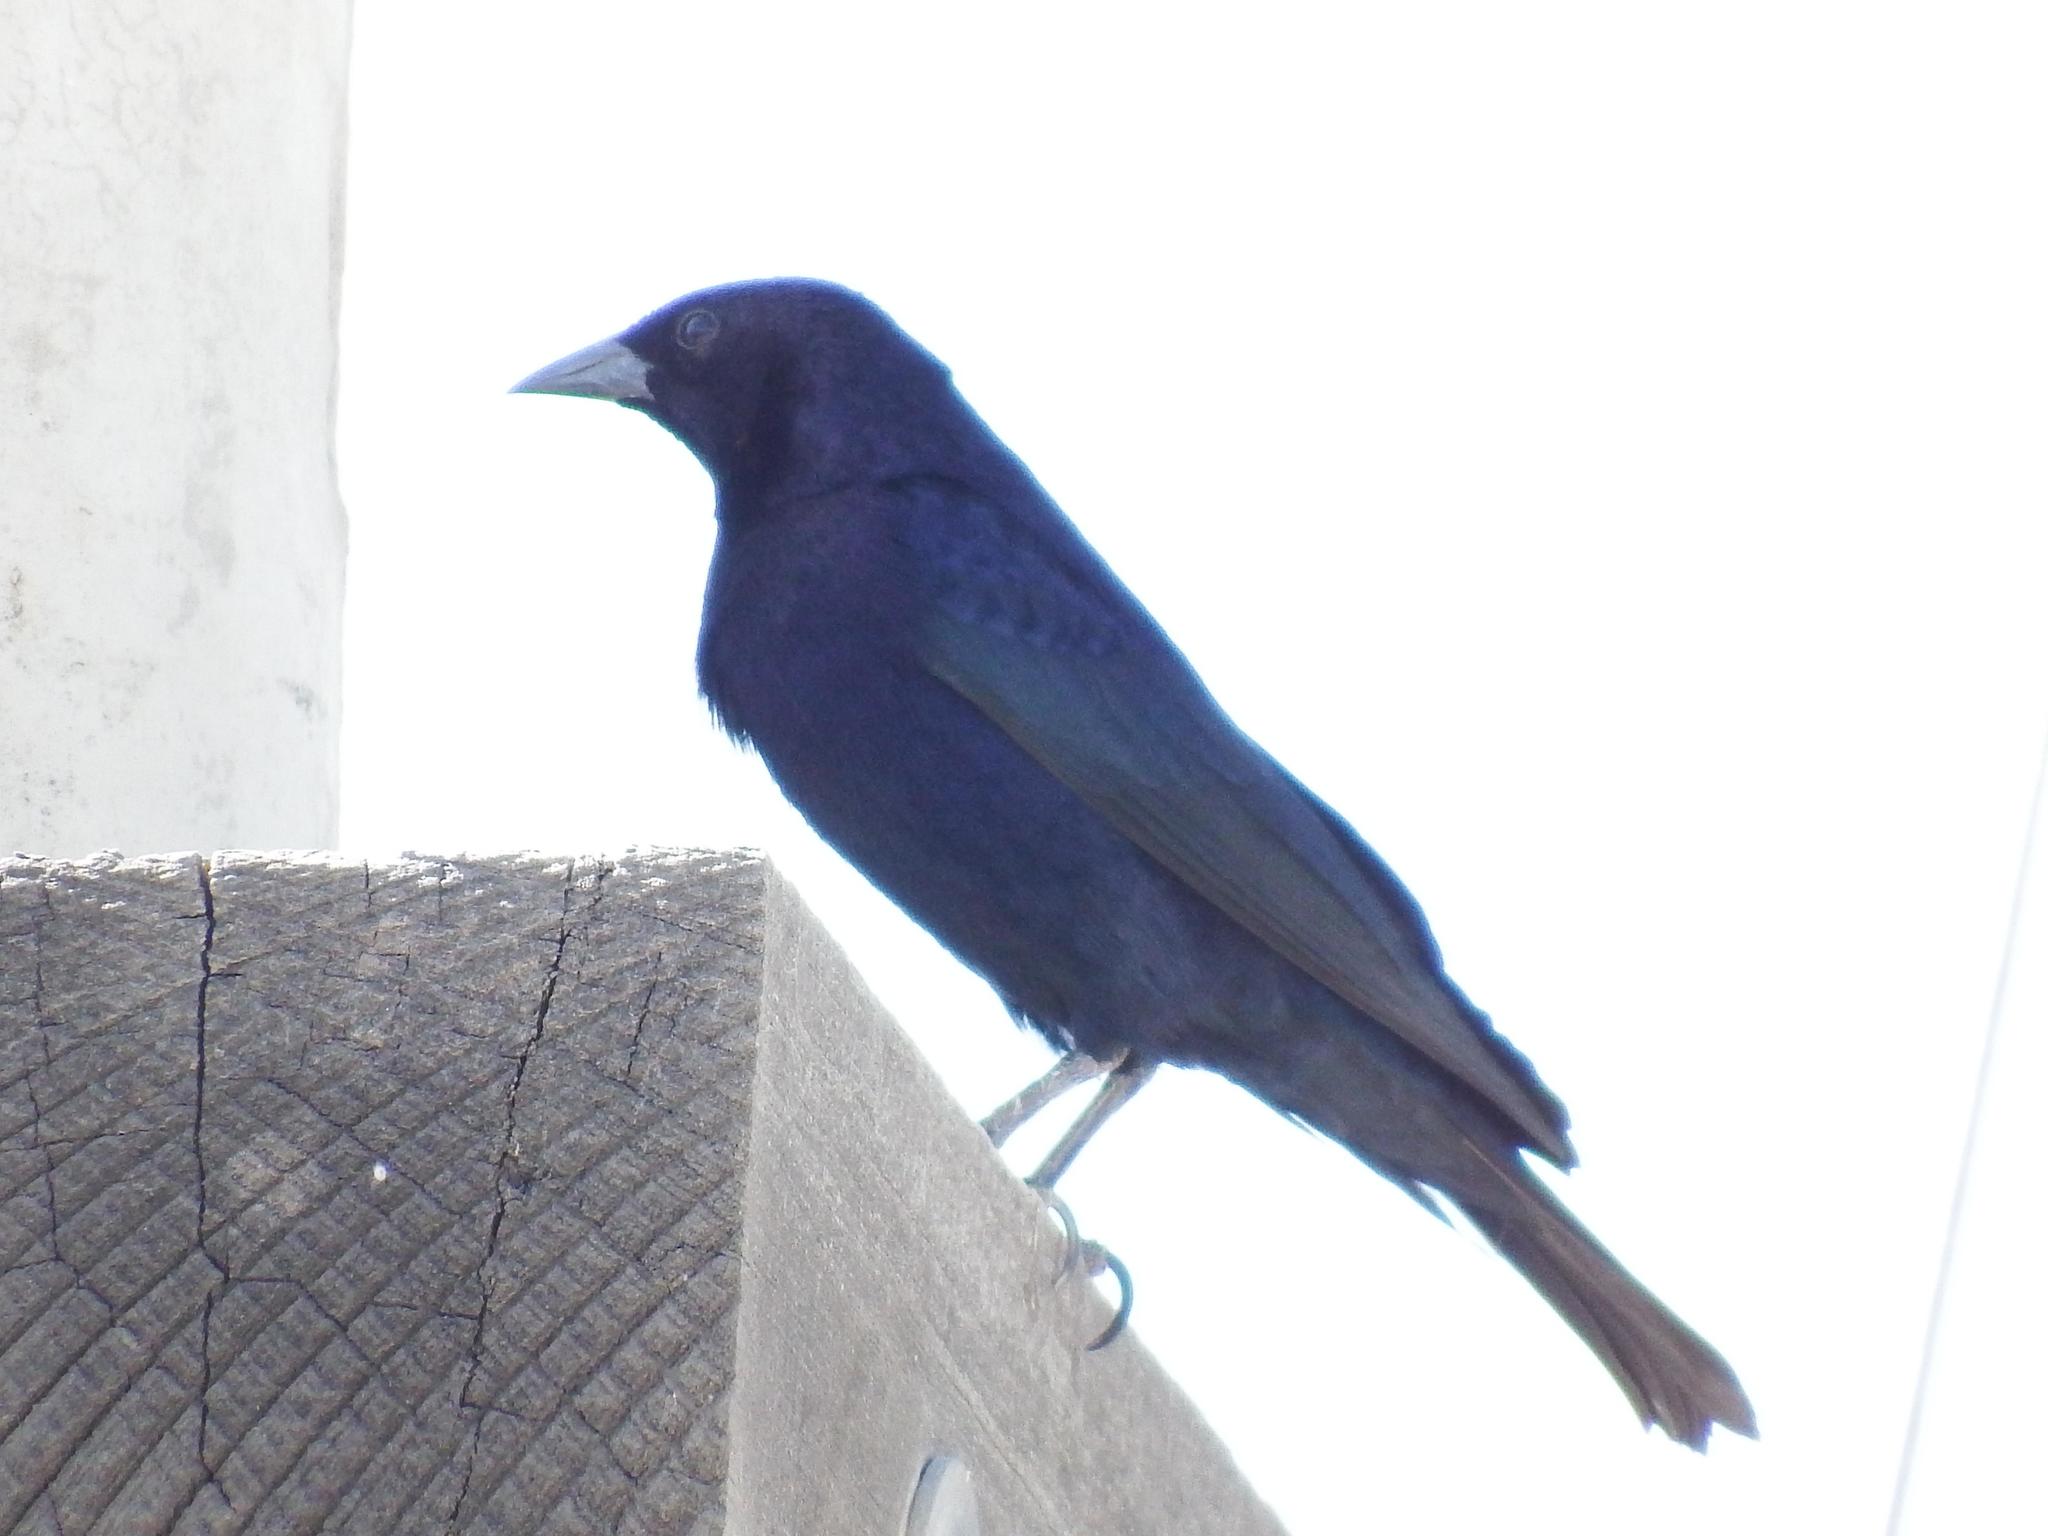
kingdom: Animalia
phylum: Chordata
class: Aves
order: Passeriformes
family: Icteridae
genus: Molothrus
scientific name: Molothrus bonariensis
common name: Shiny cowbird
